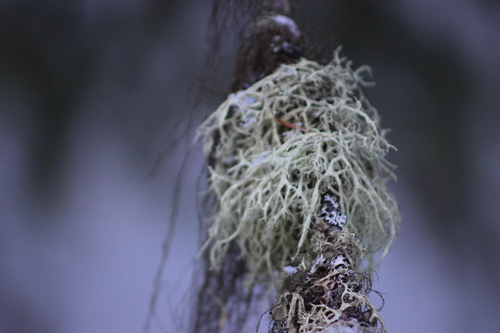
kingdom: Fungi
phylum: Ascomycota
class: Lecanoromycetes
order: Lecanorales
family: Parmeliaceae
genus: Evernia
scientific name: Evernia mesomorpha
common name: Boreal oak moss lichen
